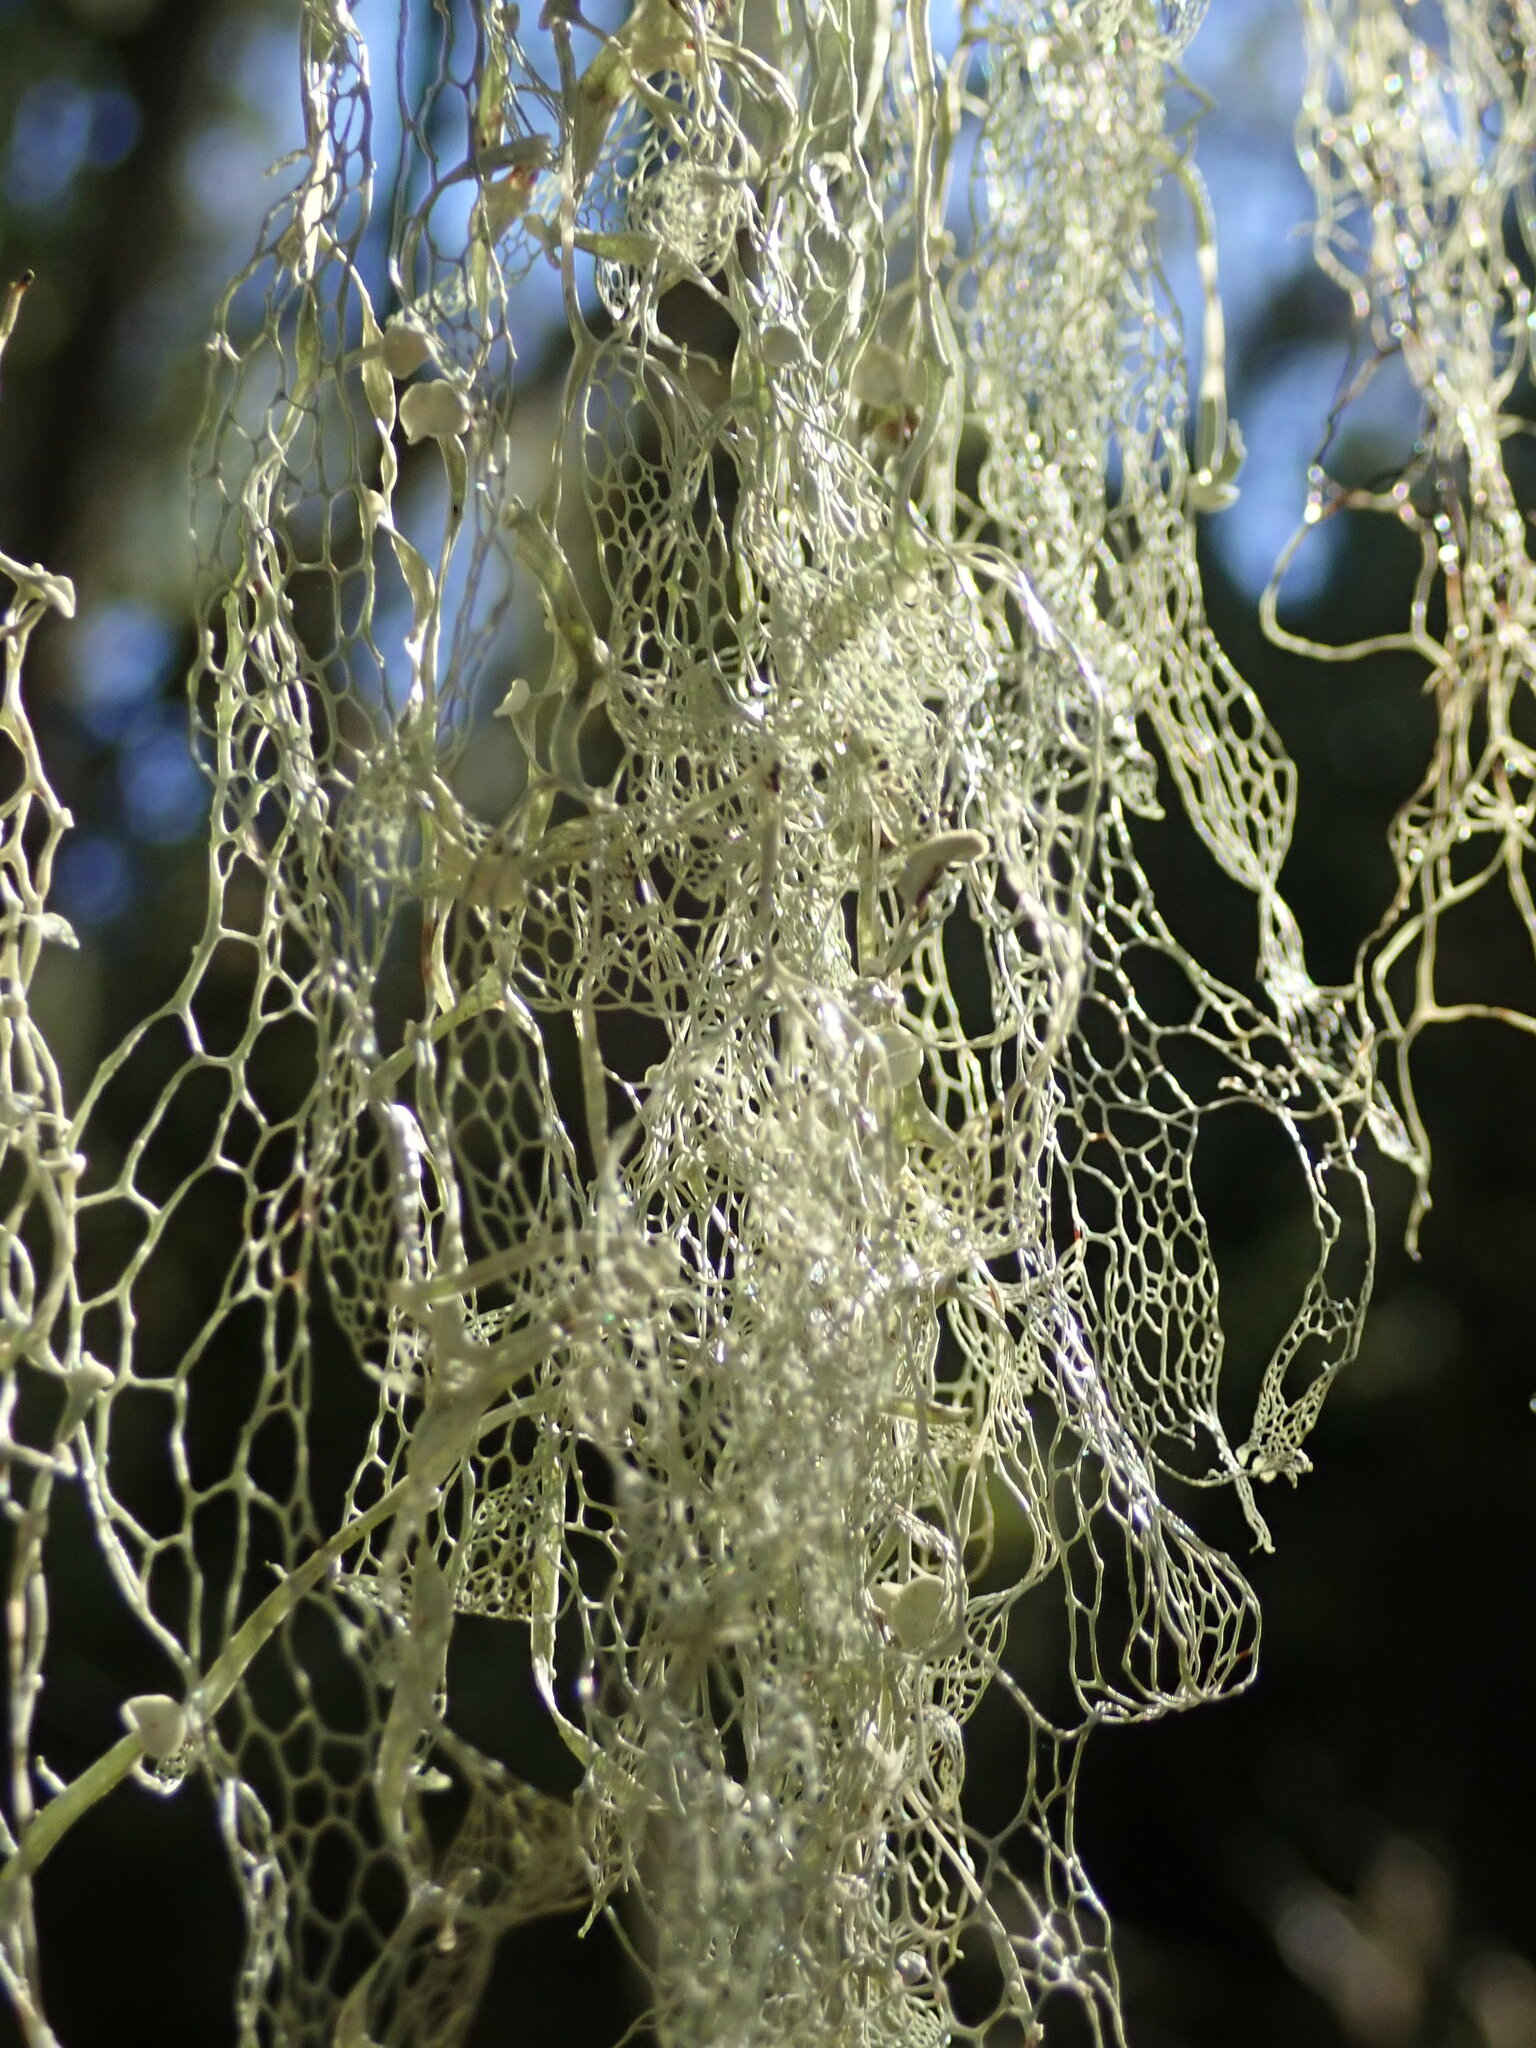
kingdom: Fungi
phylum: Ascomycota
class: Lecanoromycetes
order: Lecanorales
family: Ramalinaceae
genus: Ramalina
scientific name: Ramalina menziesii
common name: Lace lichen
